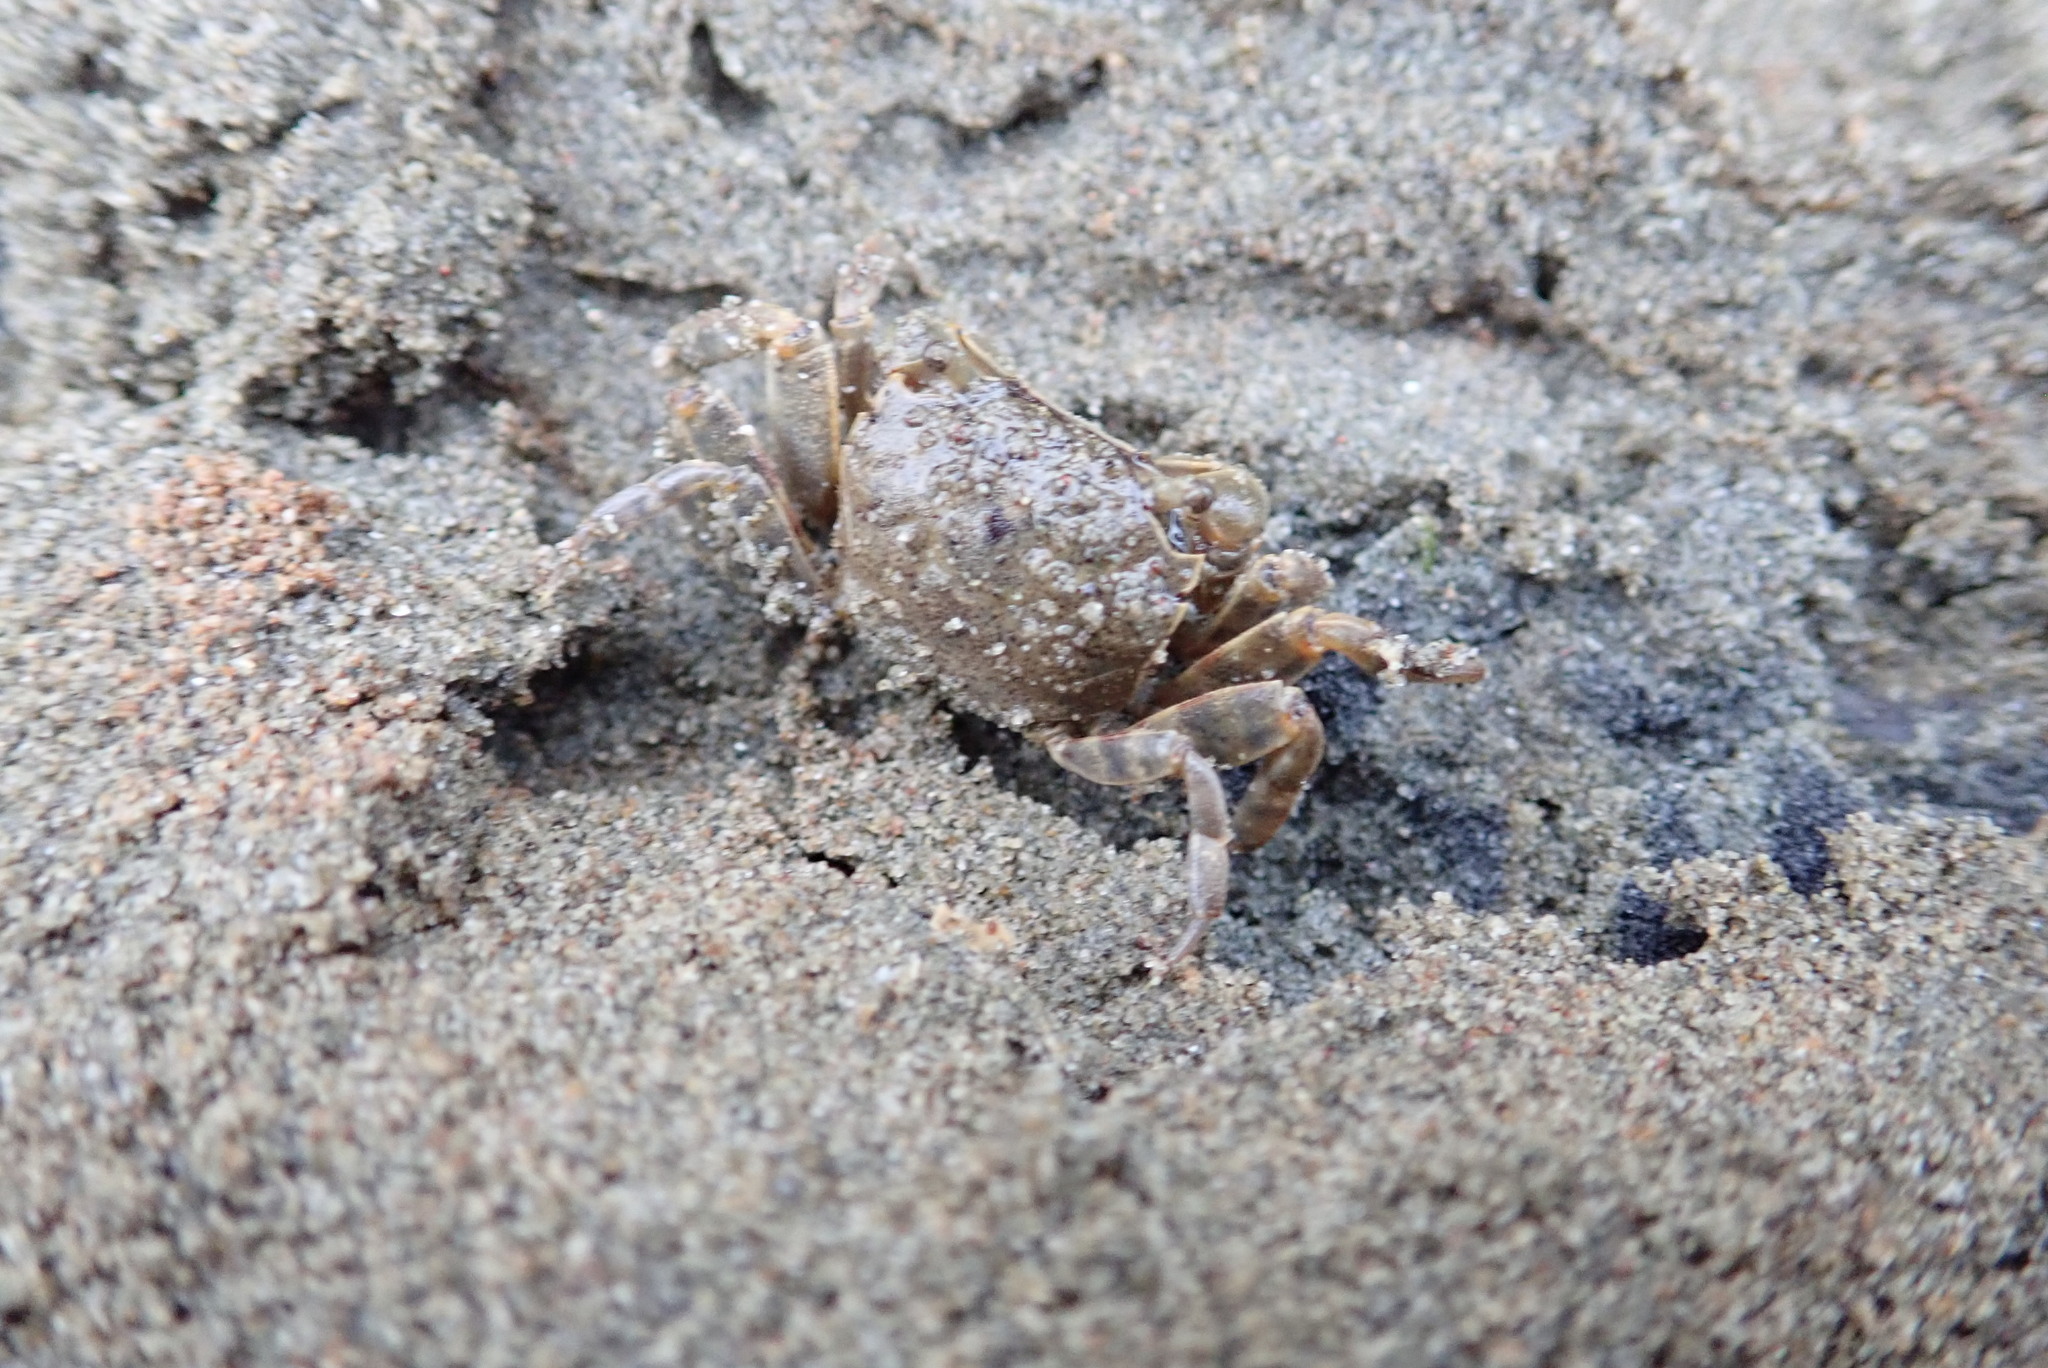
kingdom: Animalia
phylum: Arthropoda
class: Malacostraca
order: Decapoda
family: Varunidae
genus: Austrohelice
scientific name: Austrohelice crassa
